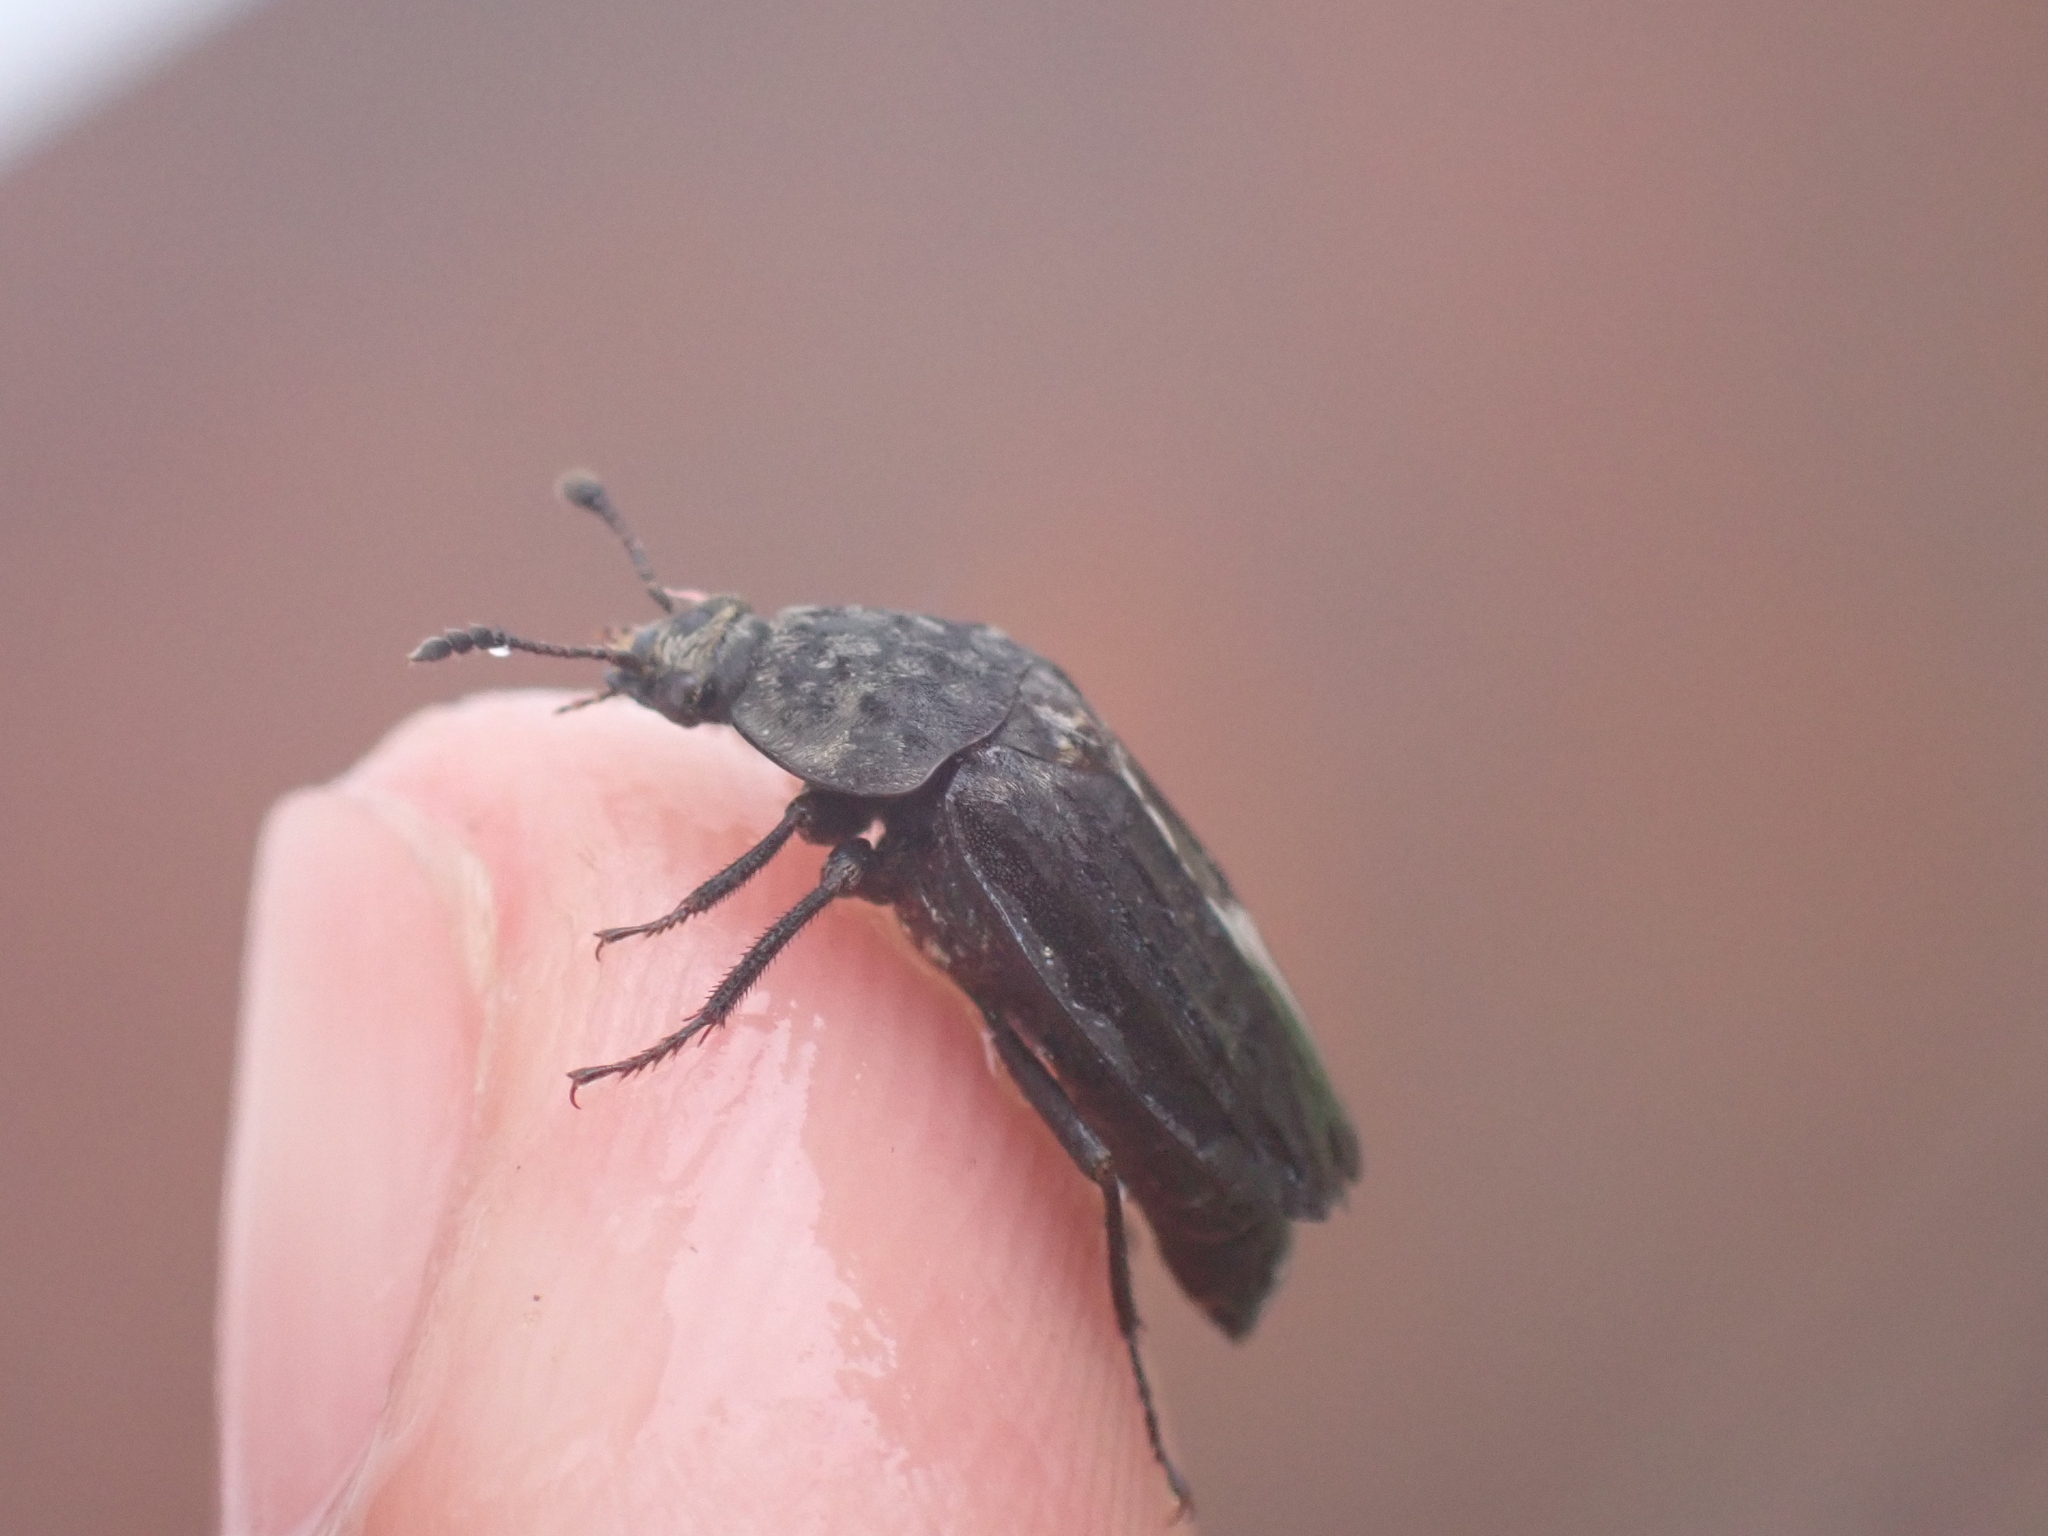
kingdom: Animalia
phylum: Arthropoda
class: Insecta
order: Coleoptera
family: Staphylinidae
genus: Thanatophilus
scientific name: Thanatophilus sinuatus
